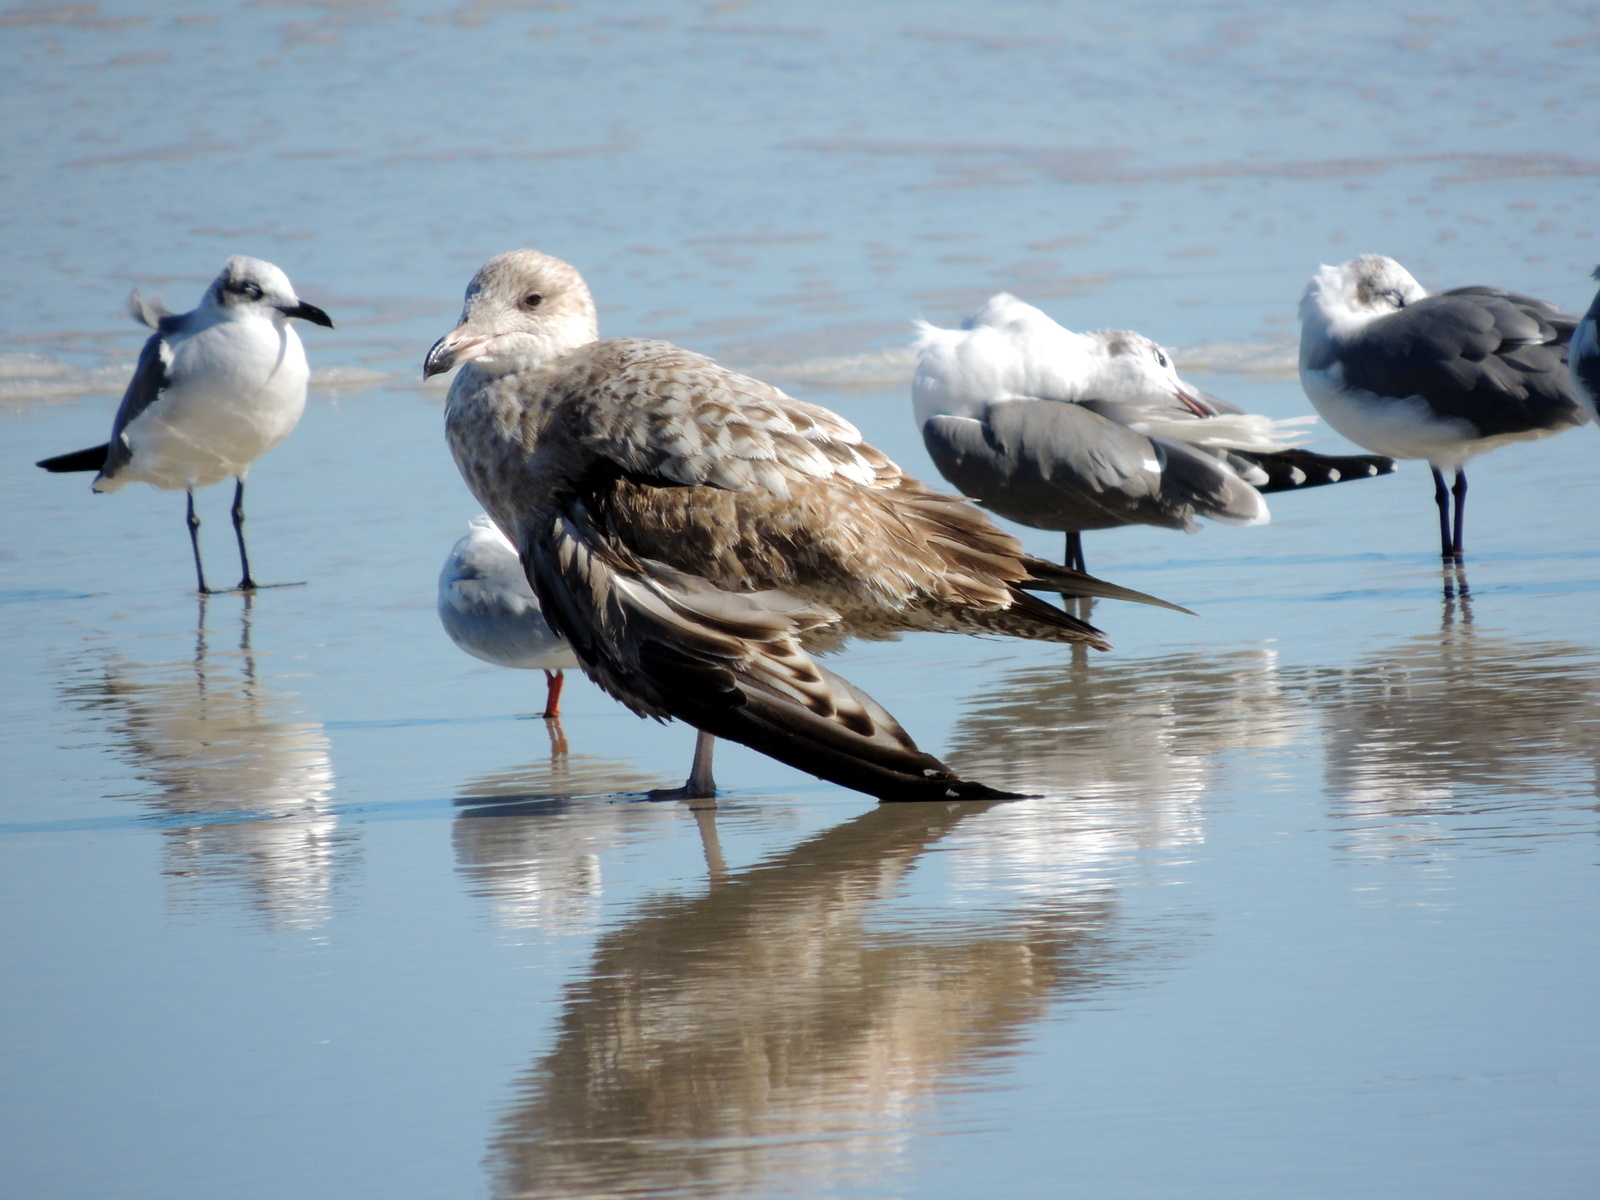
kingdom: Animalia
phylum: Chordata
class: Aves
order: Charadriiformes
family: Laridae
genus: Larus
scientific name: Larus argentatus
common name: Herring gull
